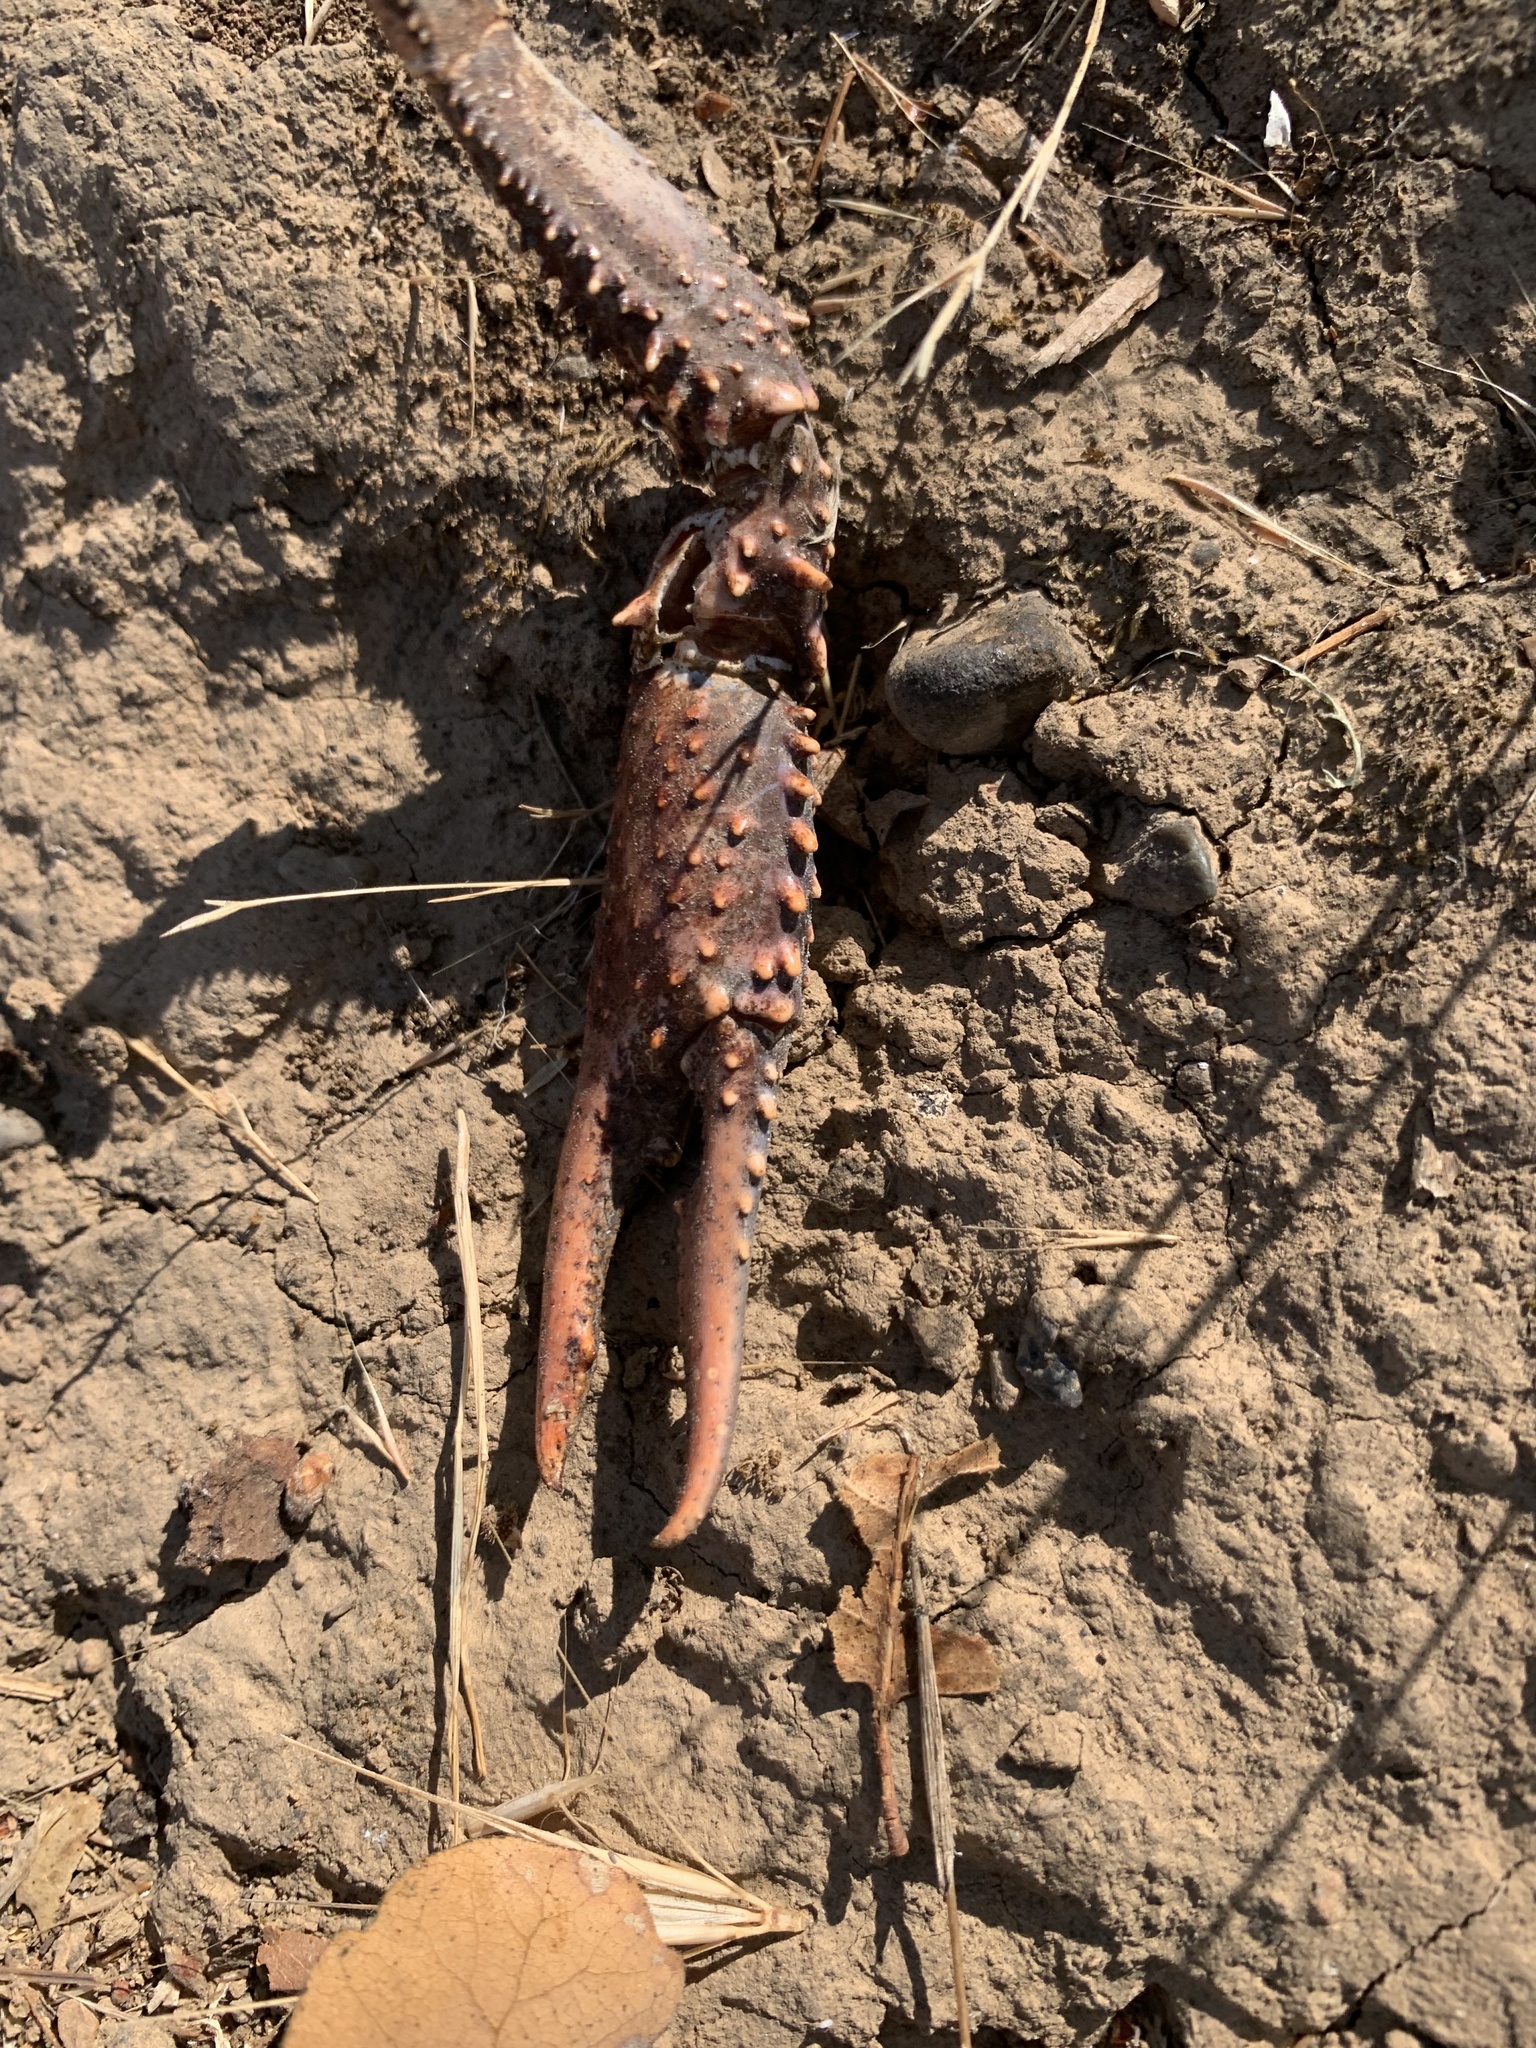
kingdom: Animalia
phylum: Arthropoda
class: Malacostraca
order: Decapoda
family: Cambaridae
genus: Procambarus
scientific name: Procambarus clarkii
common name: Red swamp crayfish
